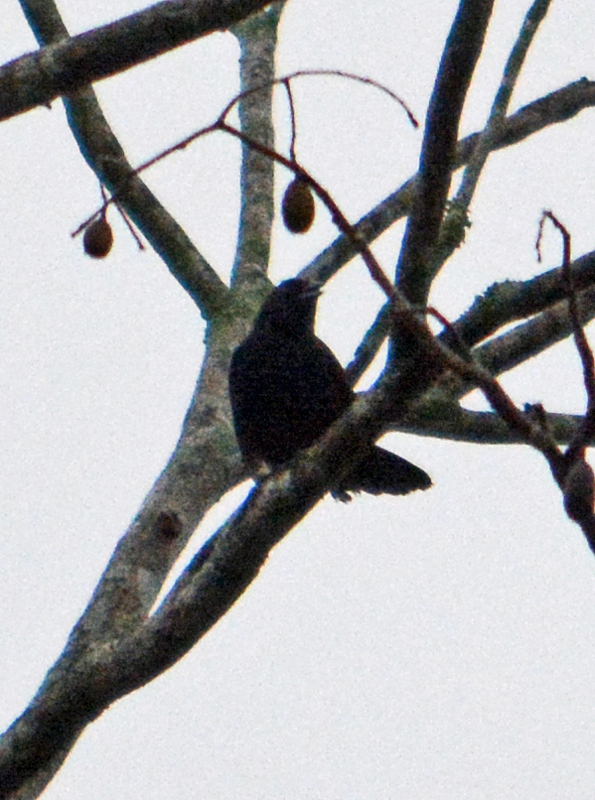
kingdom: Animalia
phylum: Chordata
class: Aves
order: Passeriformes
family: Icteridae
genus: Dives
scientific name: Dives dives
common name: Melodious blackbird
